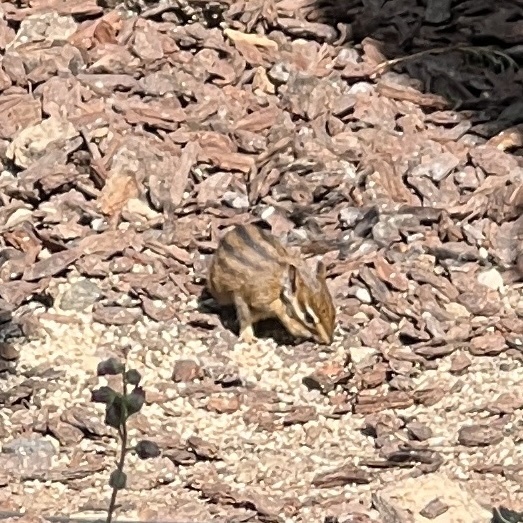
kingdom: Animalia
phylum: Chordata
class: Mammalia
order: Rodentia
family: Sciuridae
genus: Tamias
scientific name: Tamias townsendii
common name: Townsend's chipmunk
